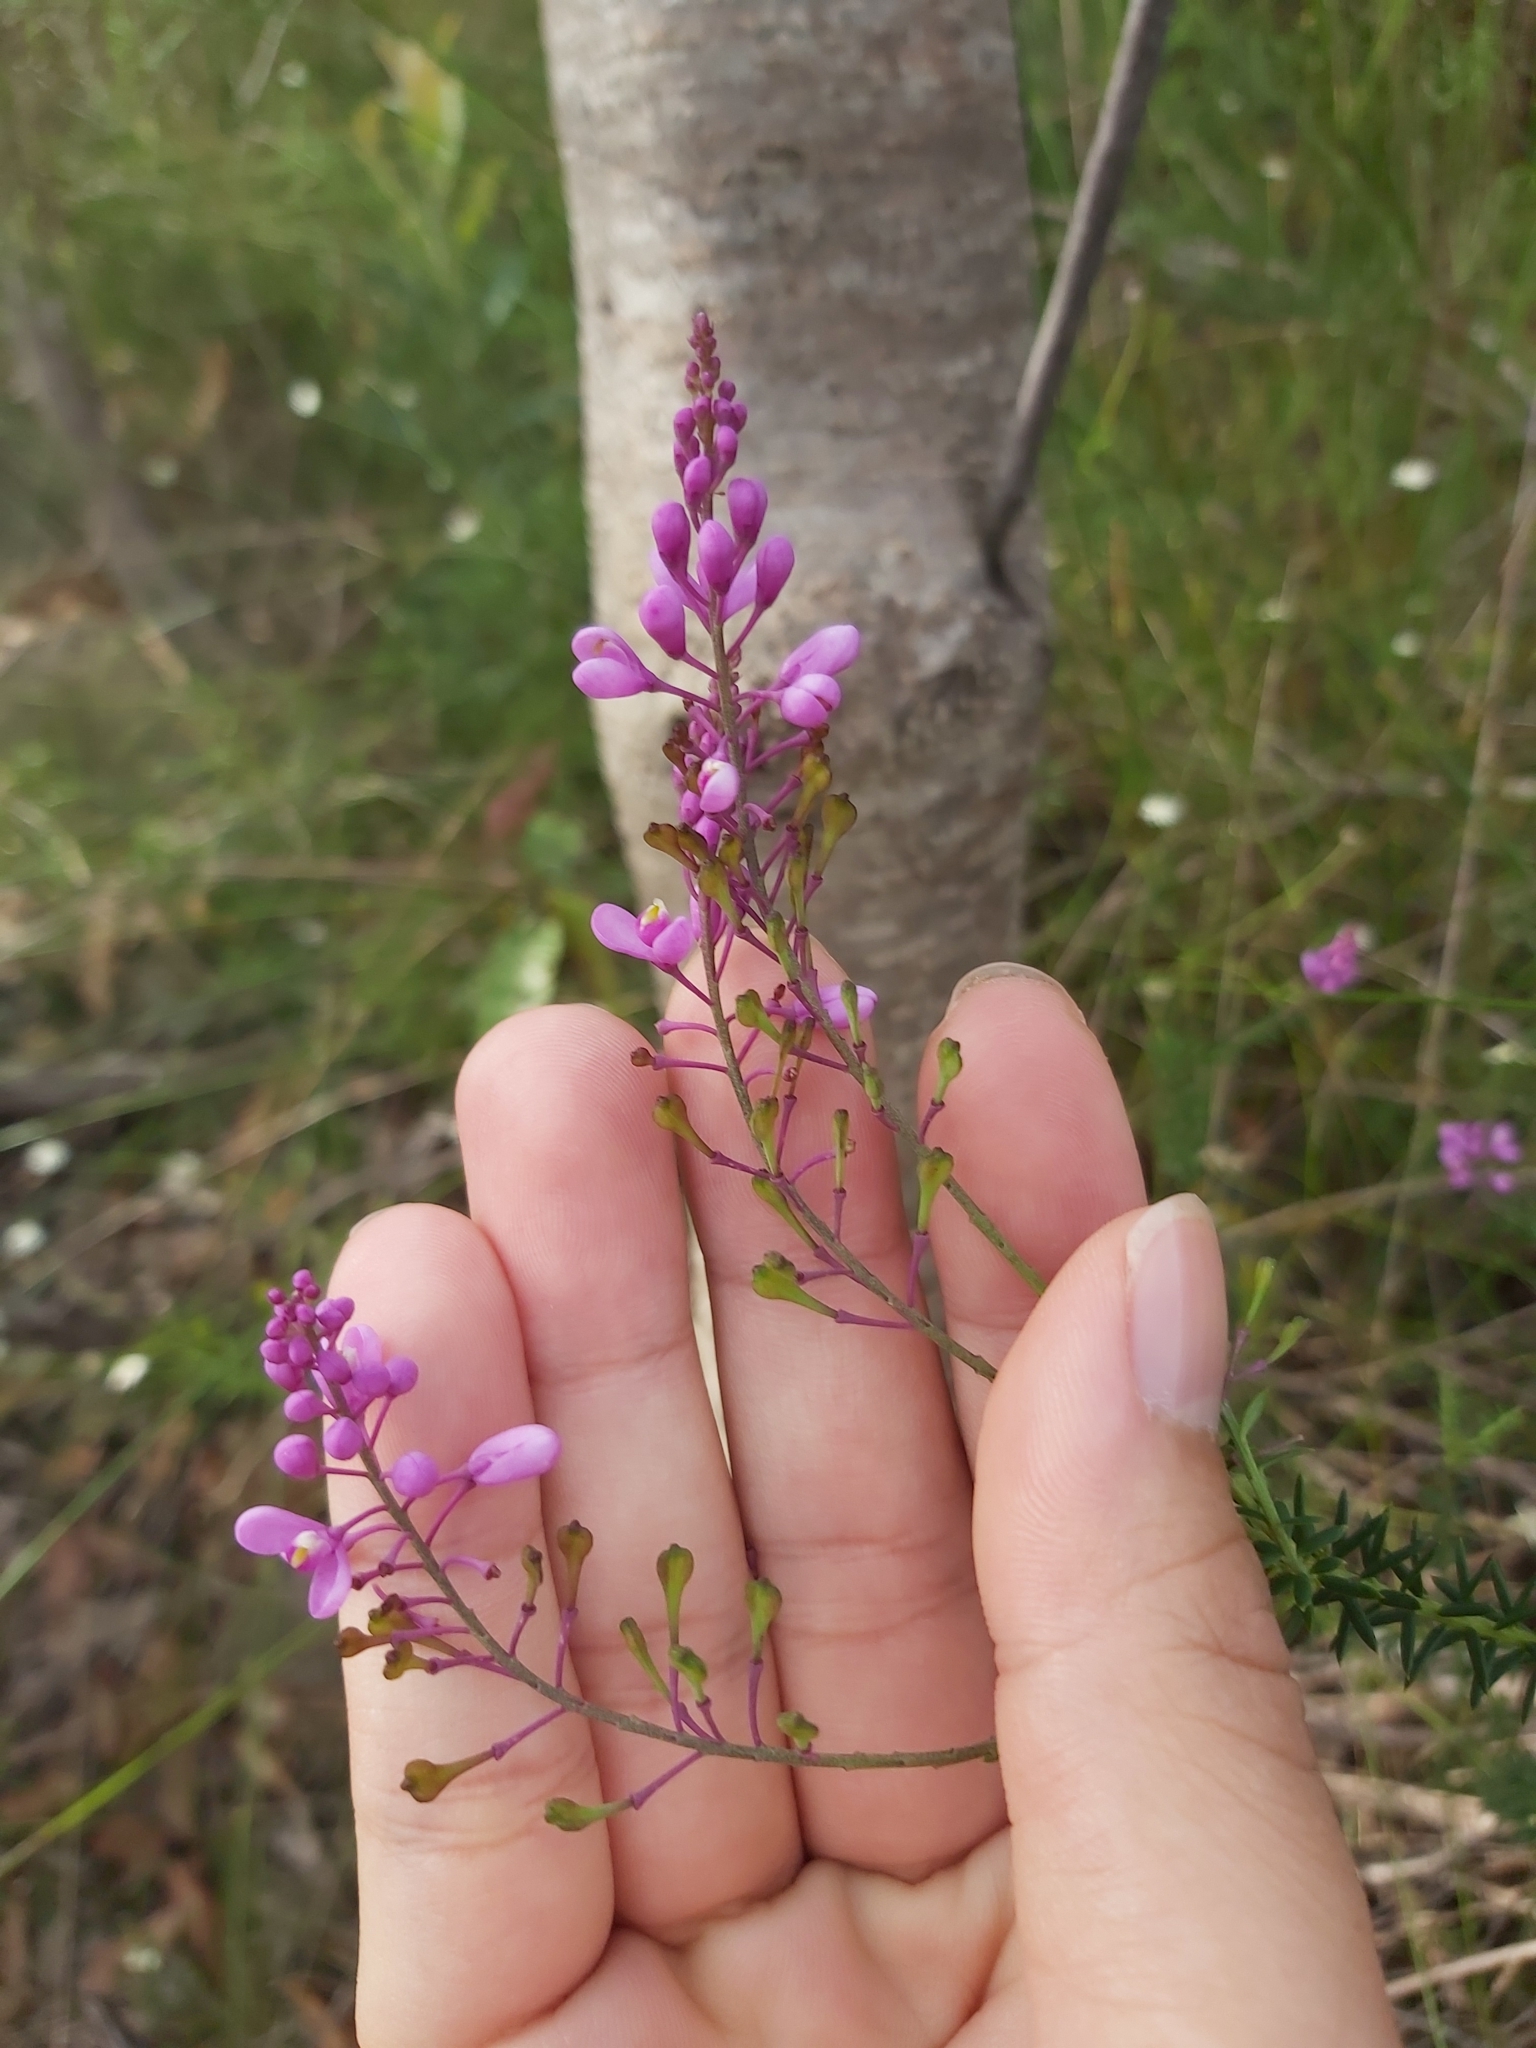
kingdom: Plantae
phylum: Tracheophyta
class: Magnoliopsida
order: Fabales
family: Polygalaceae
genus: Comesperma
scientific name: Comesperma ericinum
